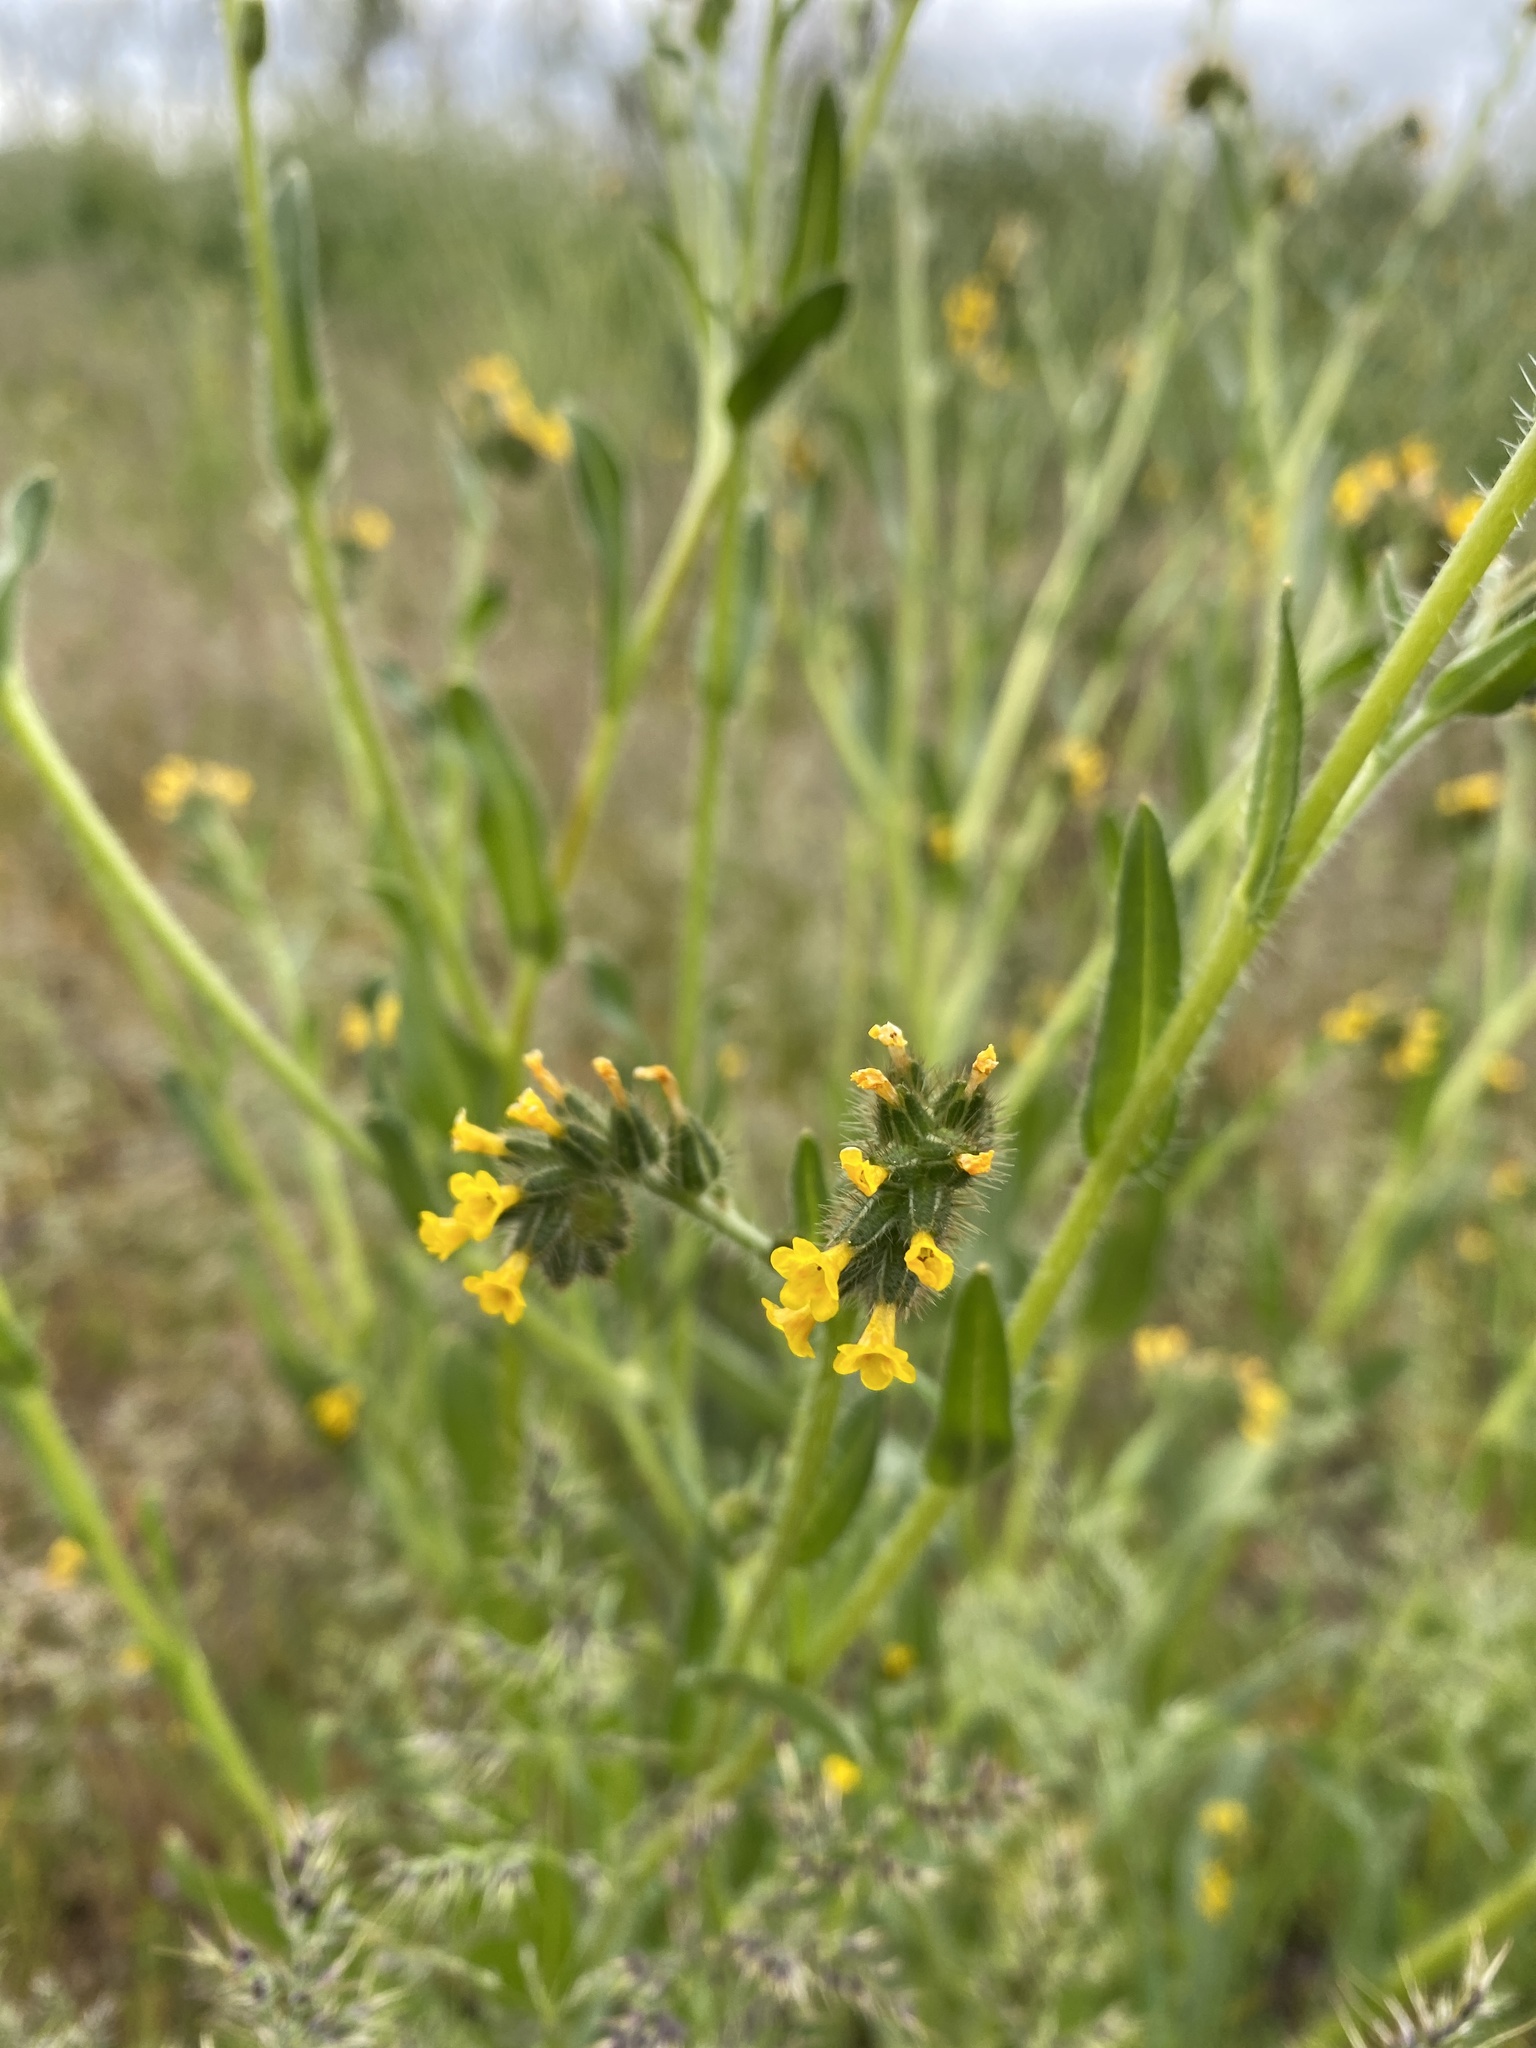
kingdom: Plantae
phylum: Tracheophyta
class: Magnoliopsida
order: Boraginales
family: Boraginaceae
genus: Amsinckia
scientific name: Amsinckia menziesii
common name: Menzies' fiddleneck
